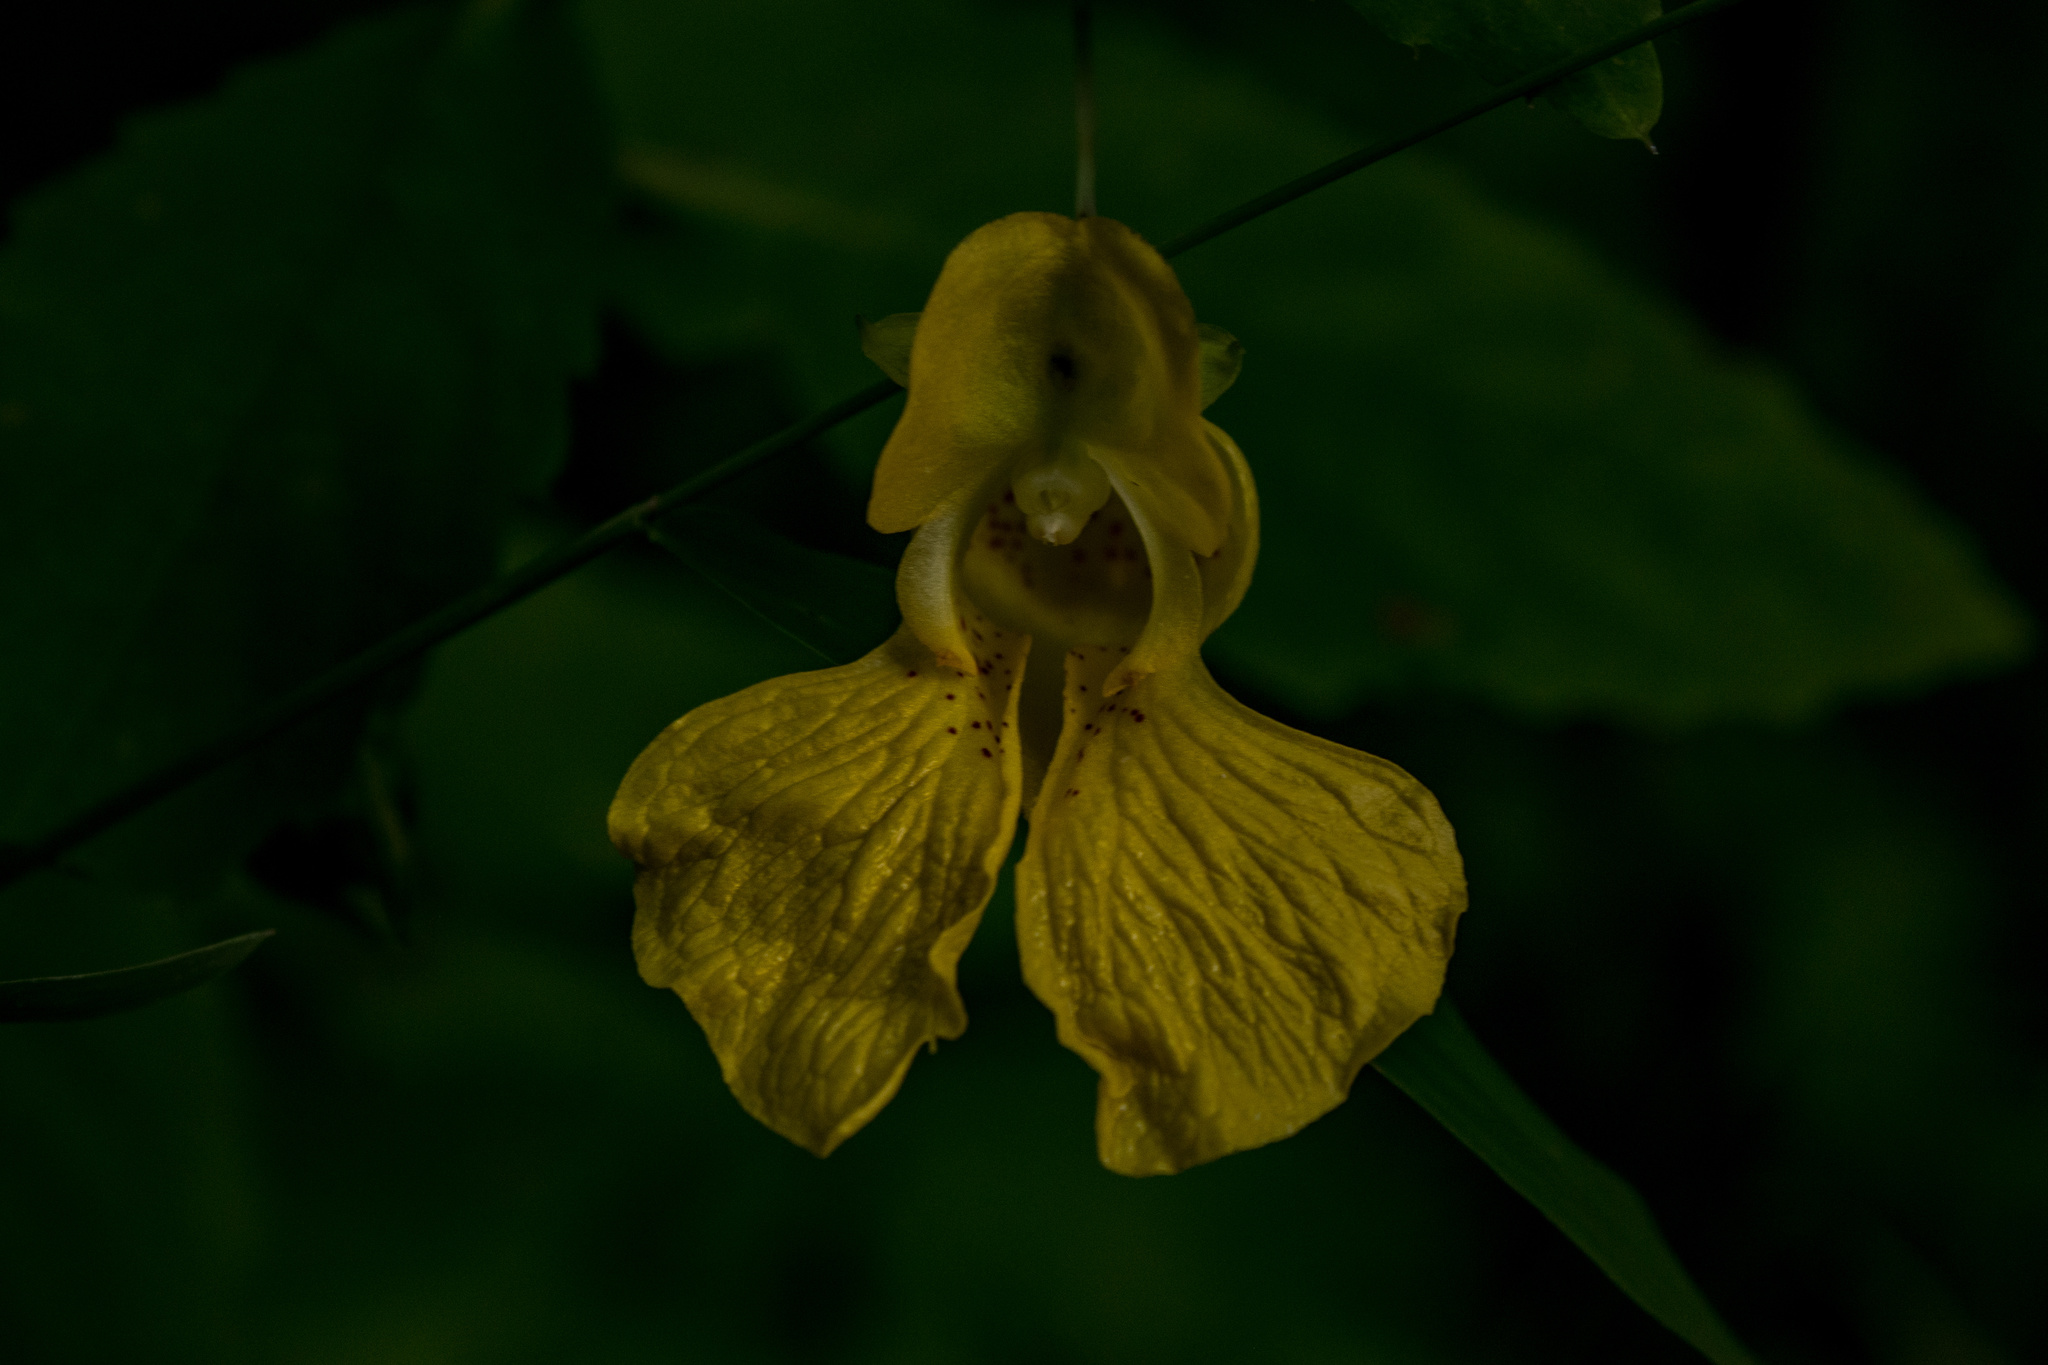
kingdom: Plantae
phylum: Tracheophyta
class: Magnoliopsida
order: Ericales
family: Balsaminaceae
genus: Impatiens
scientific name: Impatiens pallida
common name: Pale snapweed
